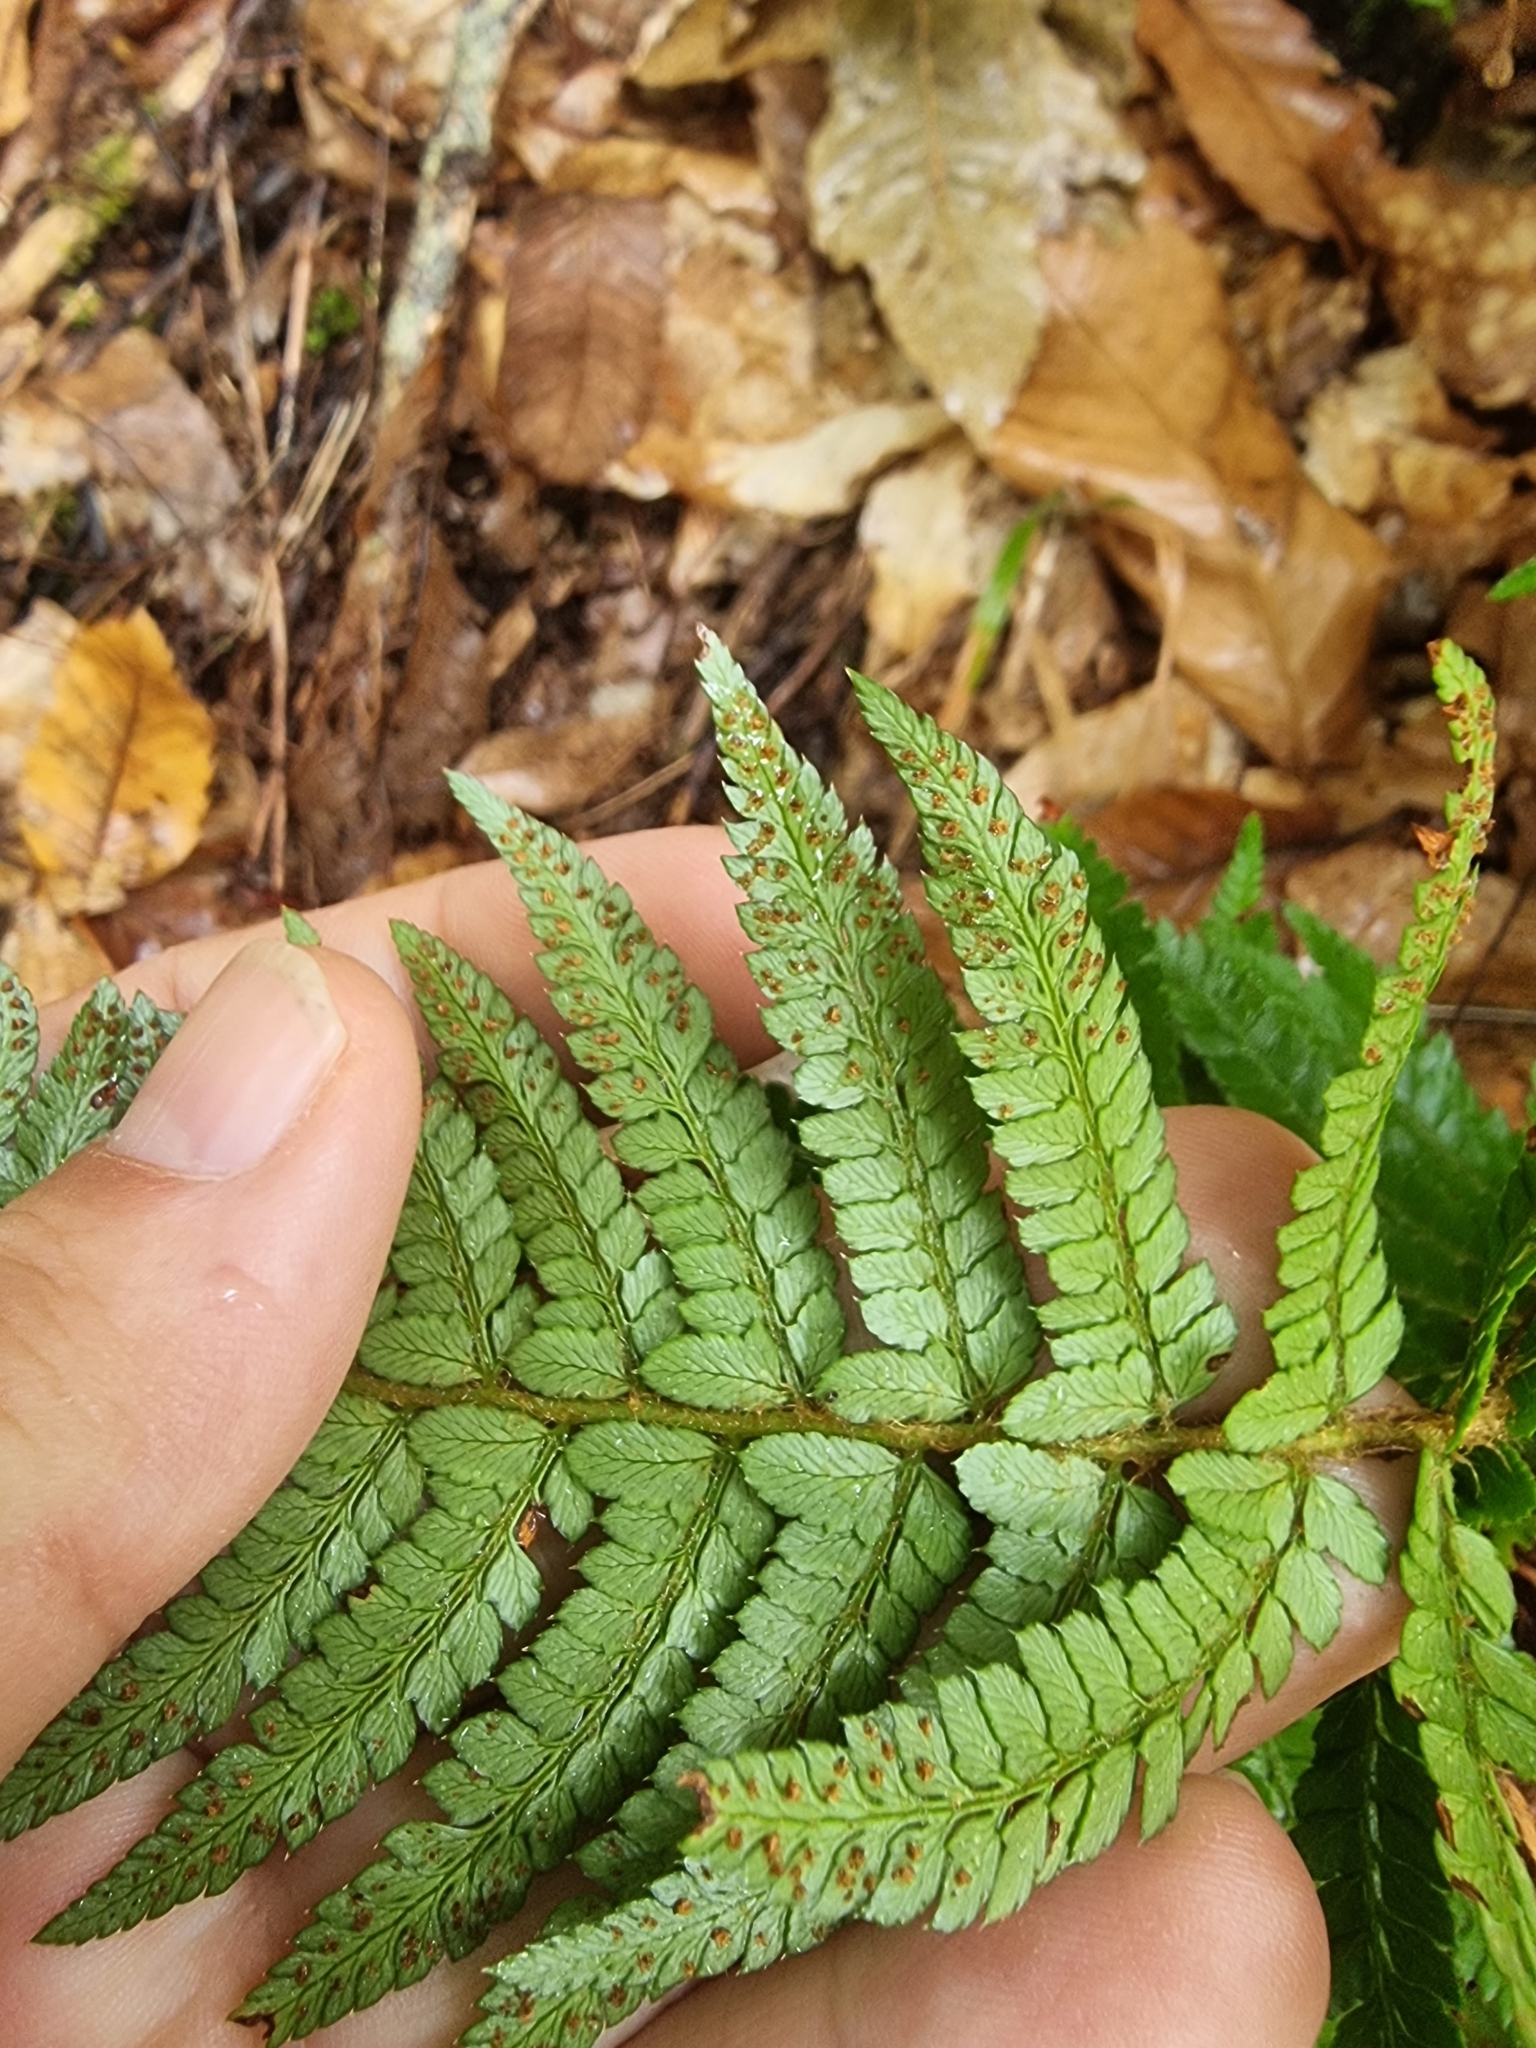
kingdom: Plantae
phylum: Tracheophyta
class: Polypodiopsida
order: Polypodiales
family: Dryopteridaceae
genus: Polystichum
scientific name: Polystichum setiferum
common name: Soft shield-fern
